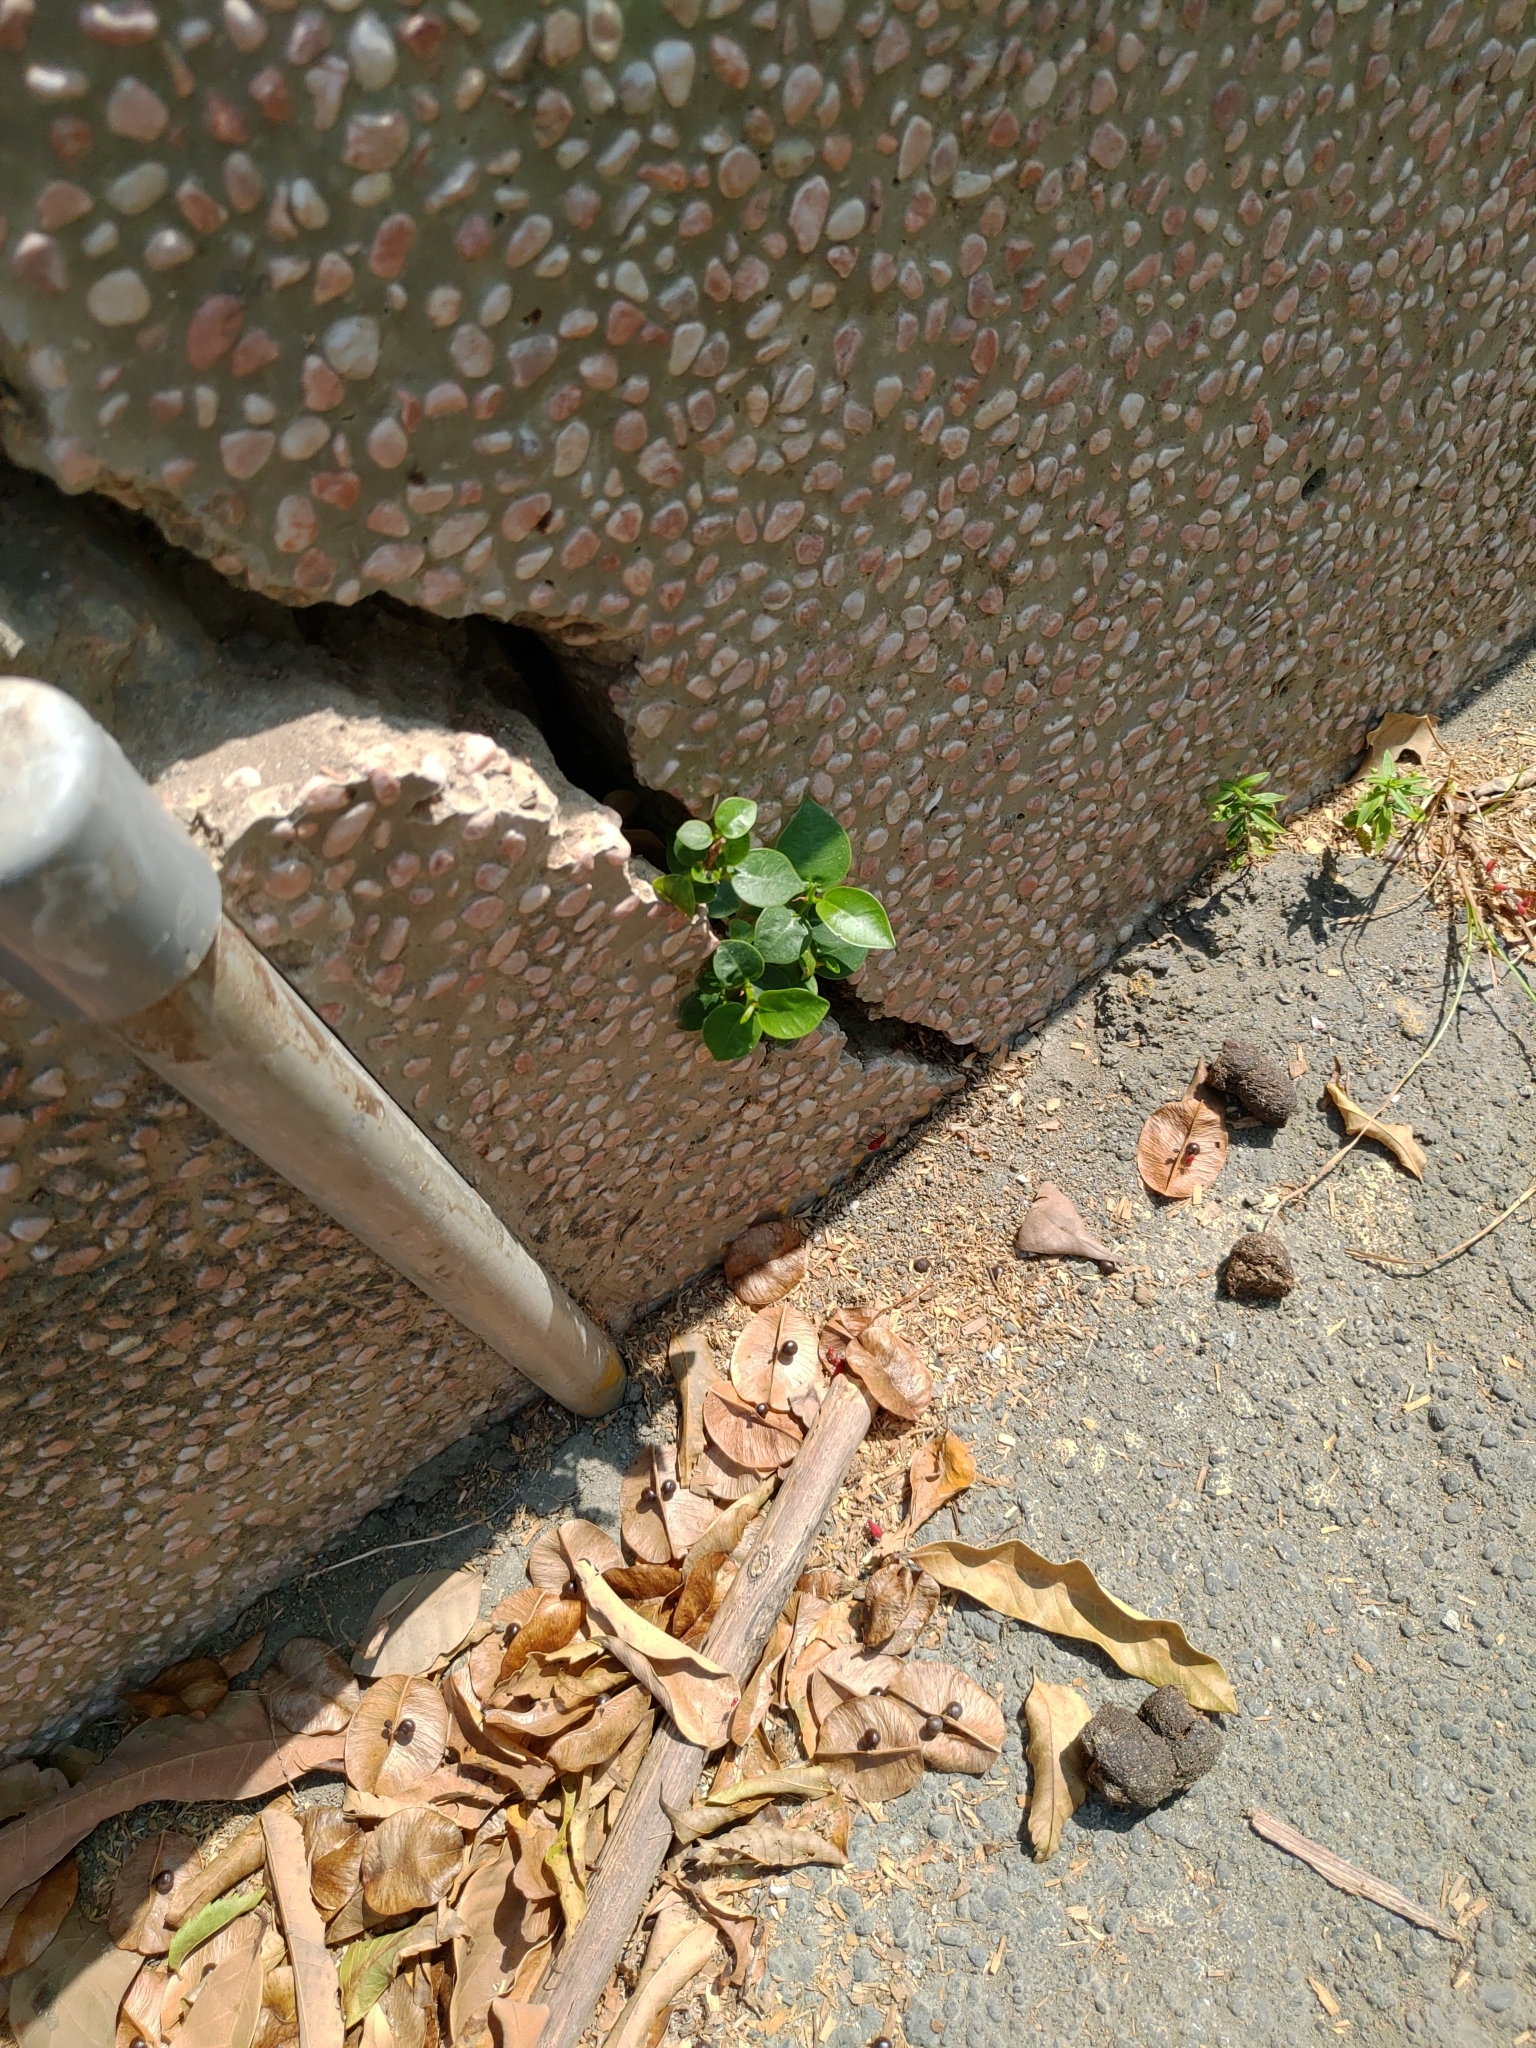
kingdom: Plantae
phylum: Tracheophyta
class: Magnoliopsida
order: Rosales
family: Moraceae
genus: Ficus
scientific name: Ficus microcarpa
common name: Chinese banyan
